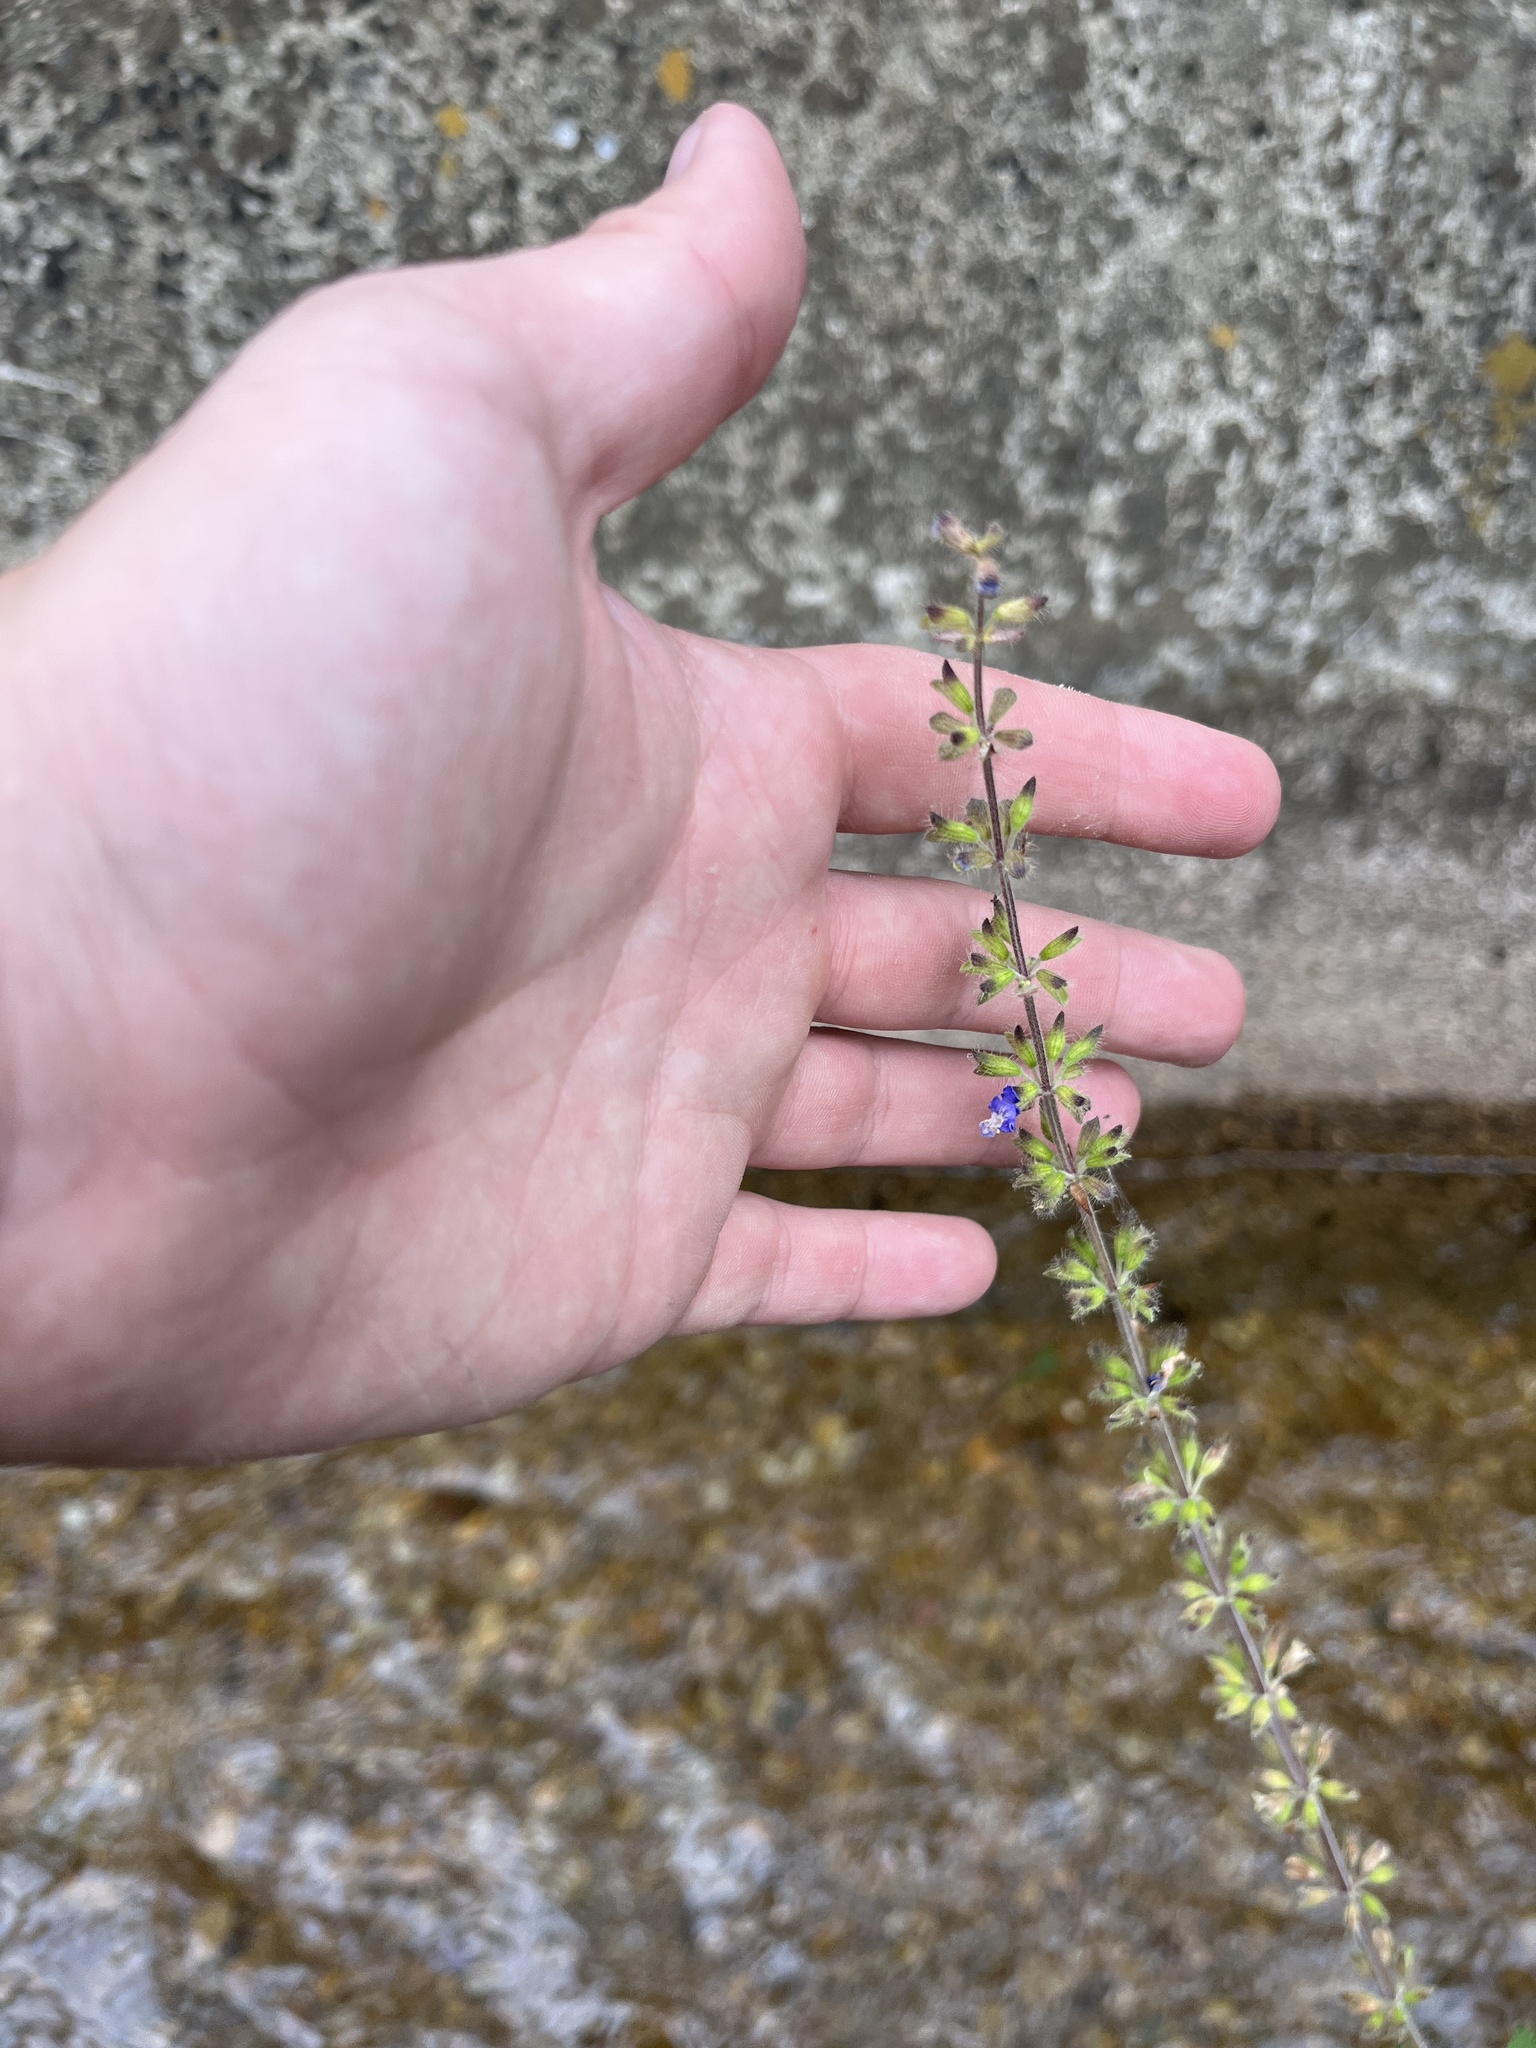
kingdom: Plantae
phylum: Tracheophyta
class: Magnoliopsida
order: Lamiales
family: Lamiaceae
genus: Salvia
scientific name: Salvia podadena
